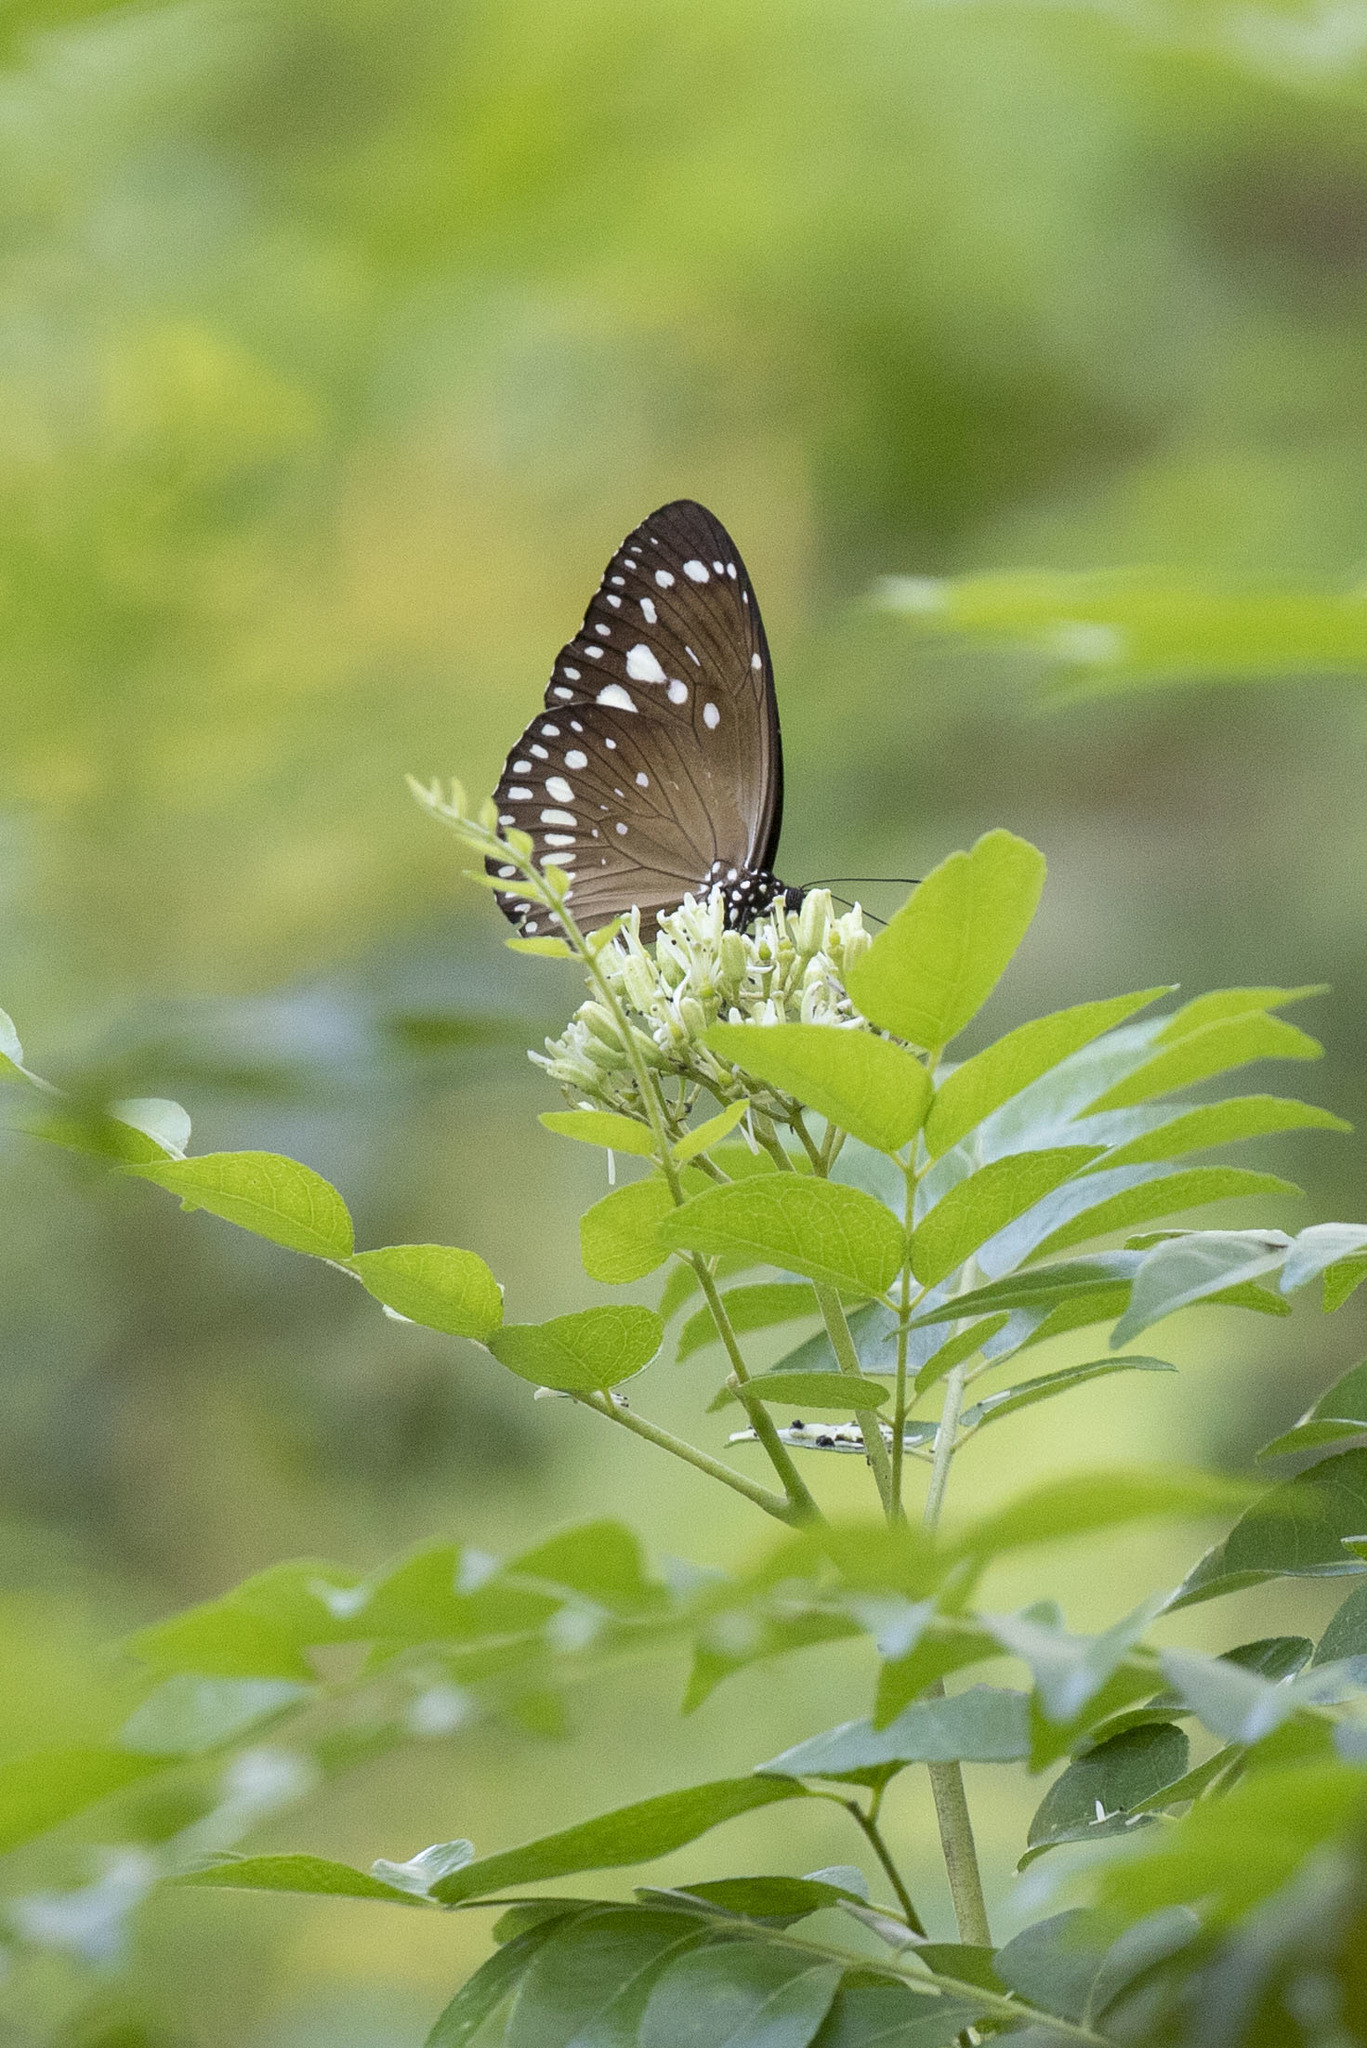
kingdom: Animalia
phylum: Arthropoda
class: Insecta
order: Lepidoptera
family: Nymphalidae
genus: Euploea
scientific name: Euploea core
